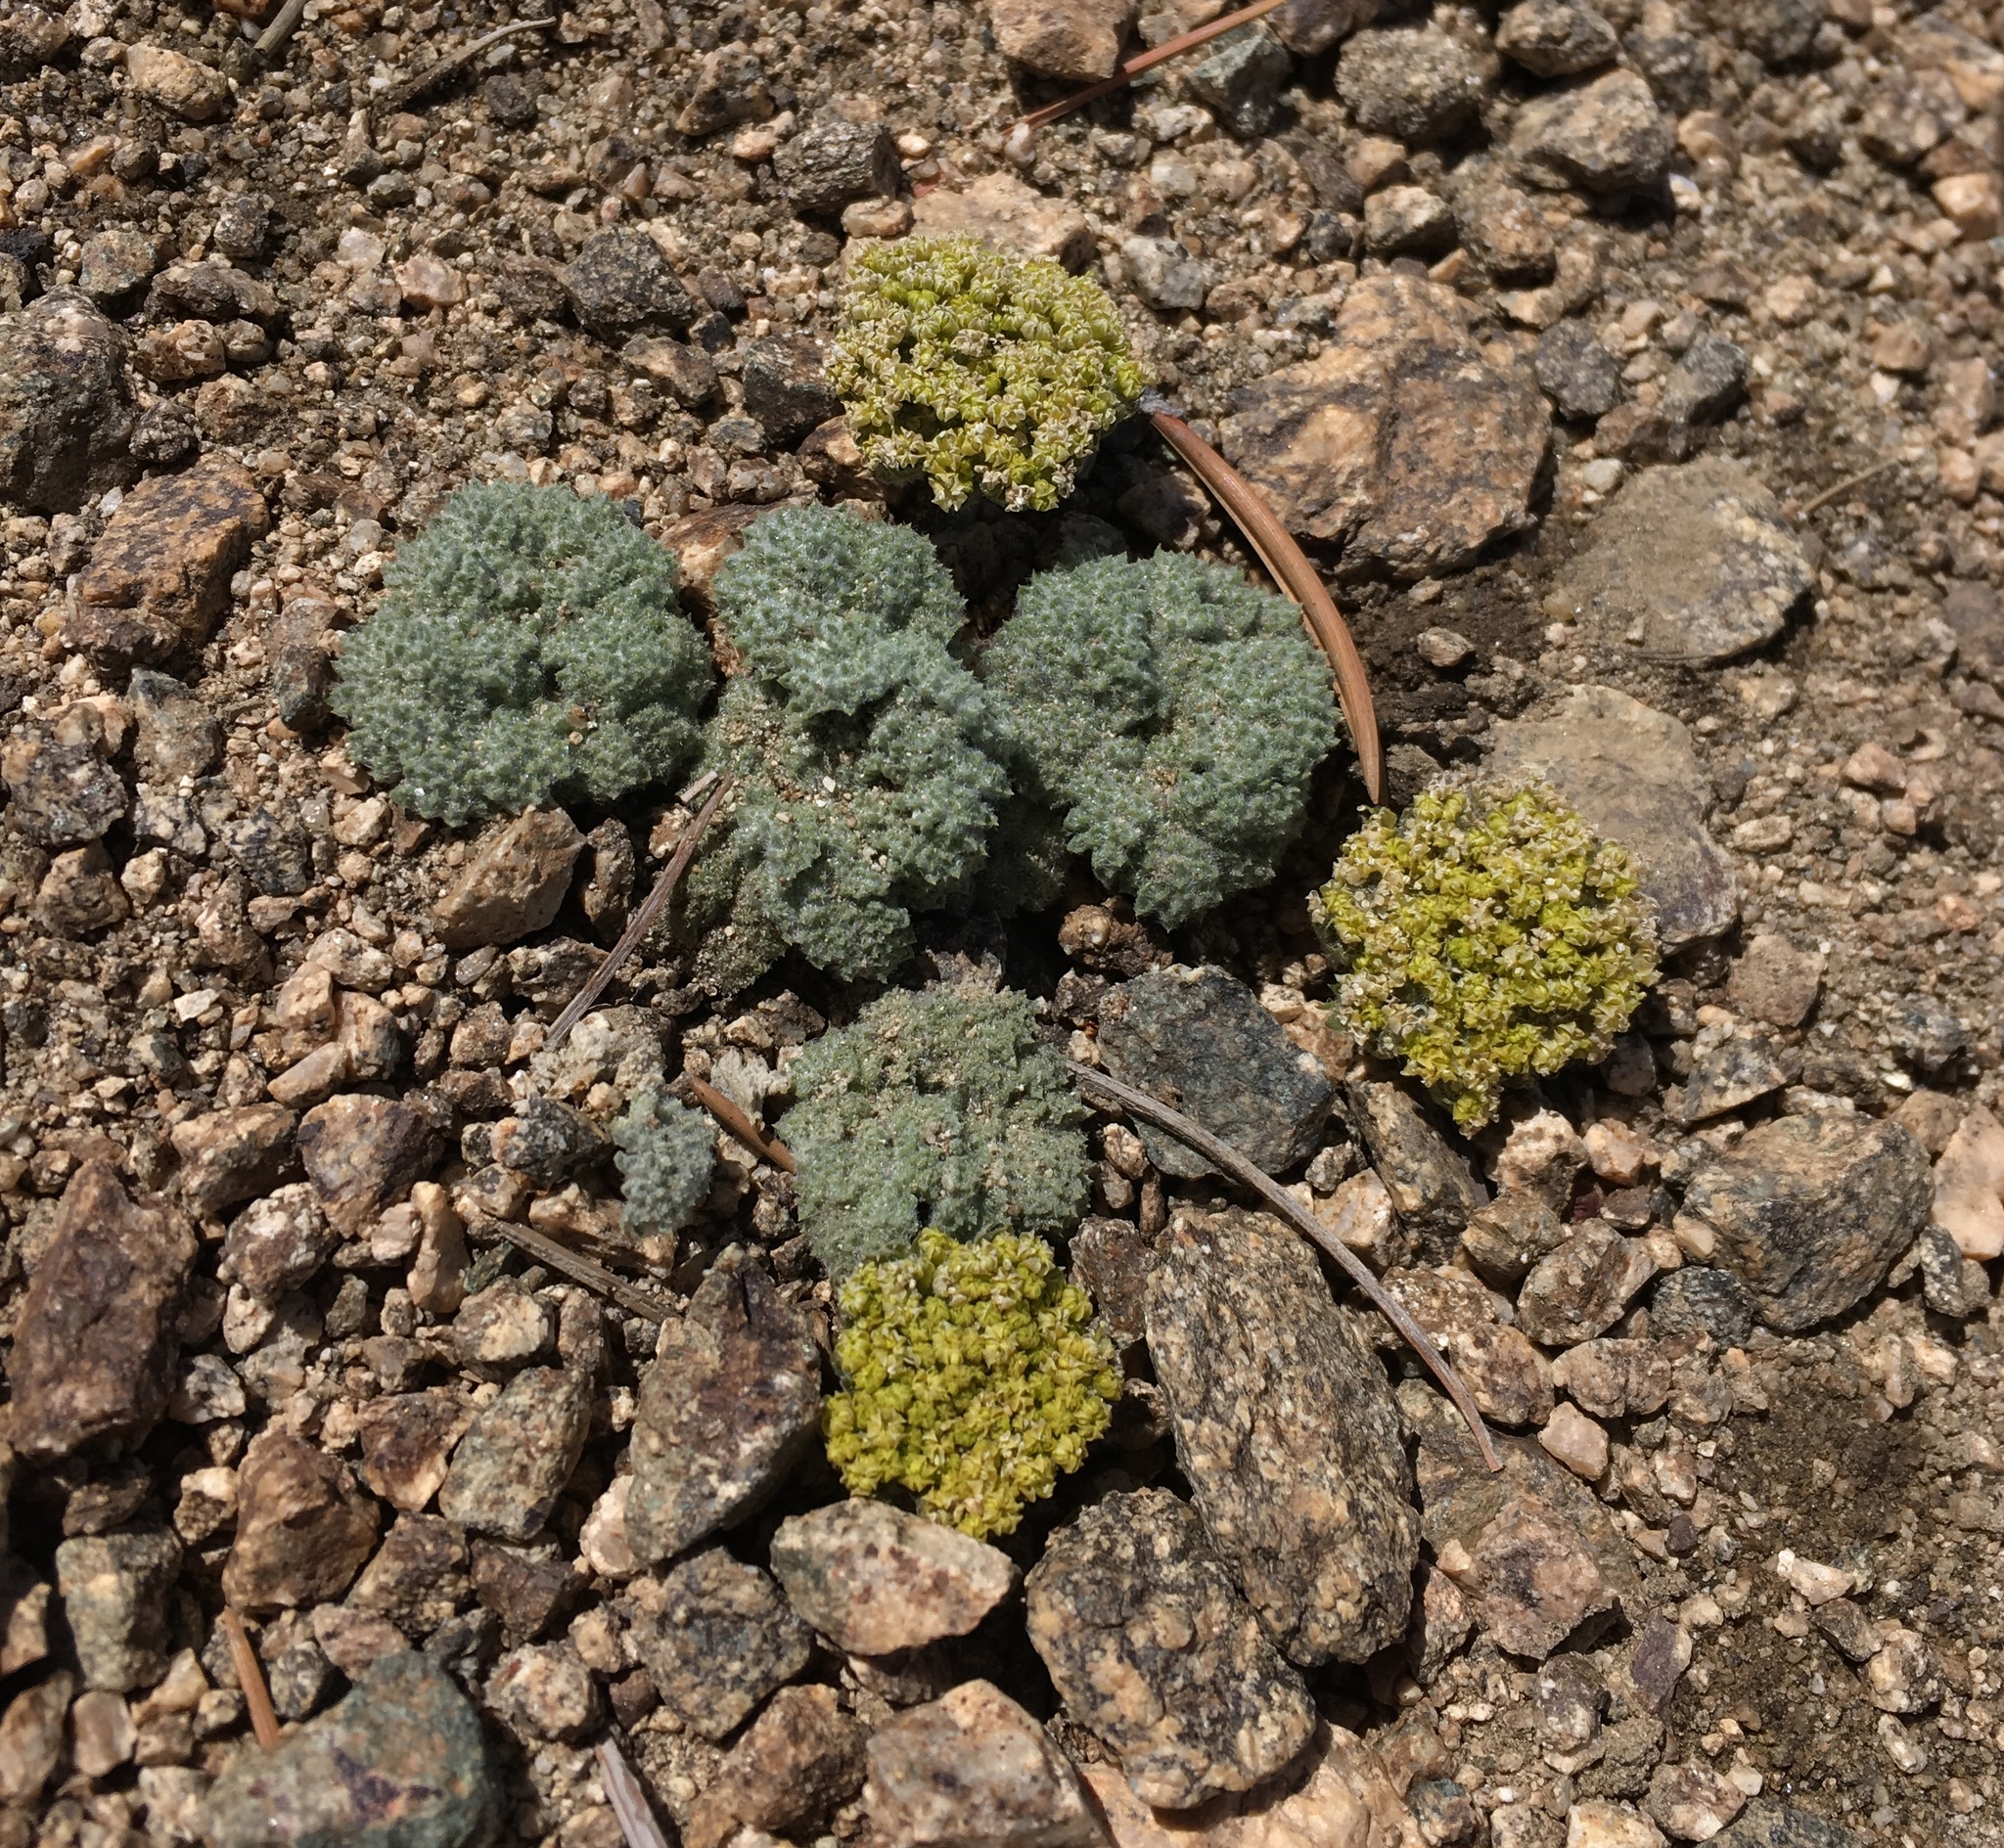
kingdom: Plantae
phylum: Tracheophyta
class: Magnoliopsida
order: Apiales
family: Apiaceae
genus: Oreonana
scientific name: Oreonana vestita
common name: Woolly mountain-parsley
